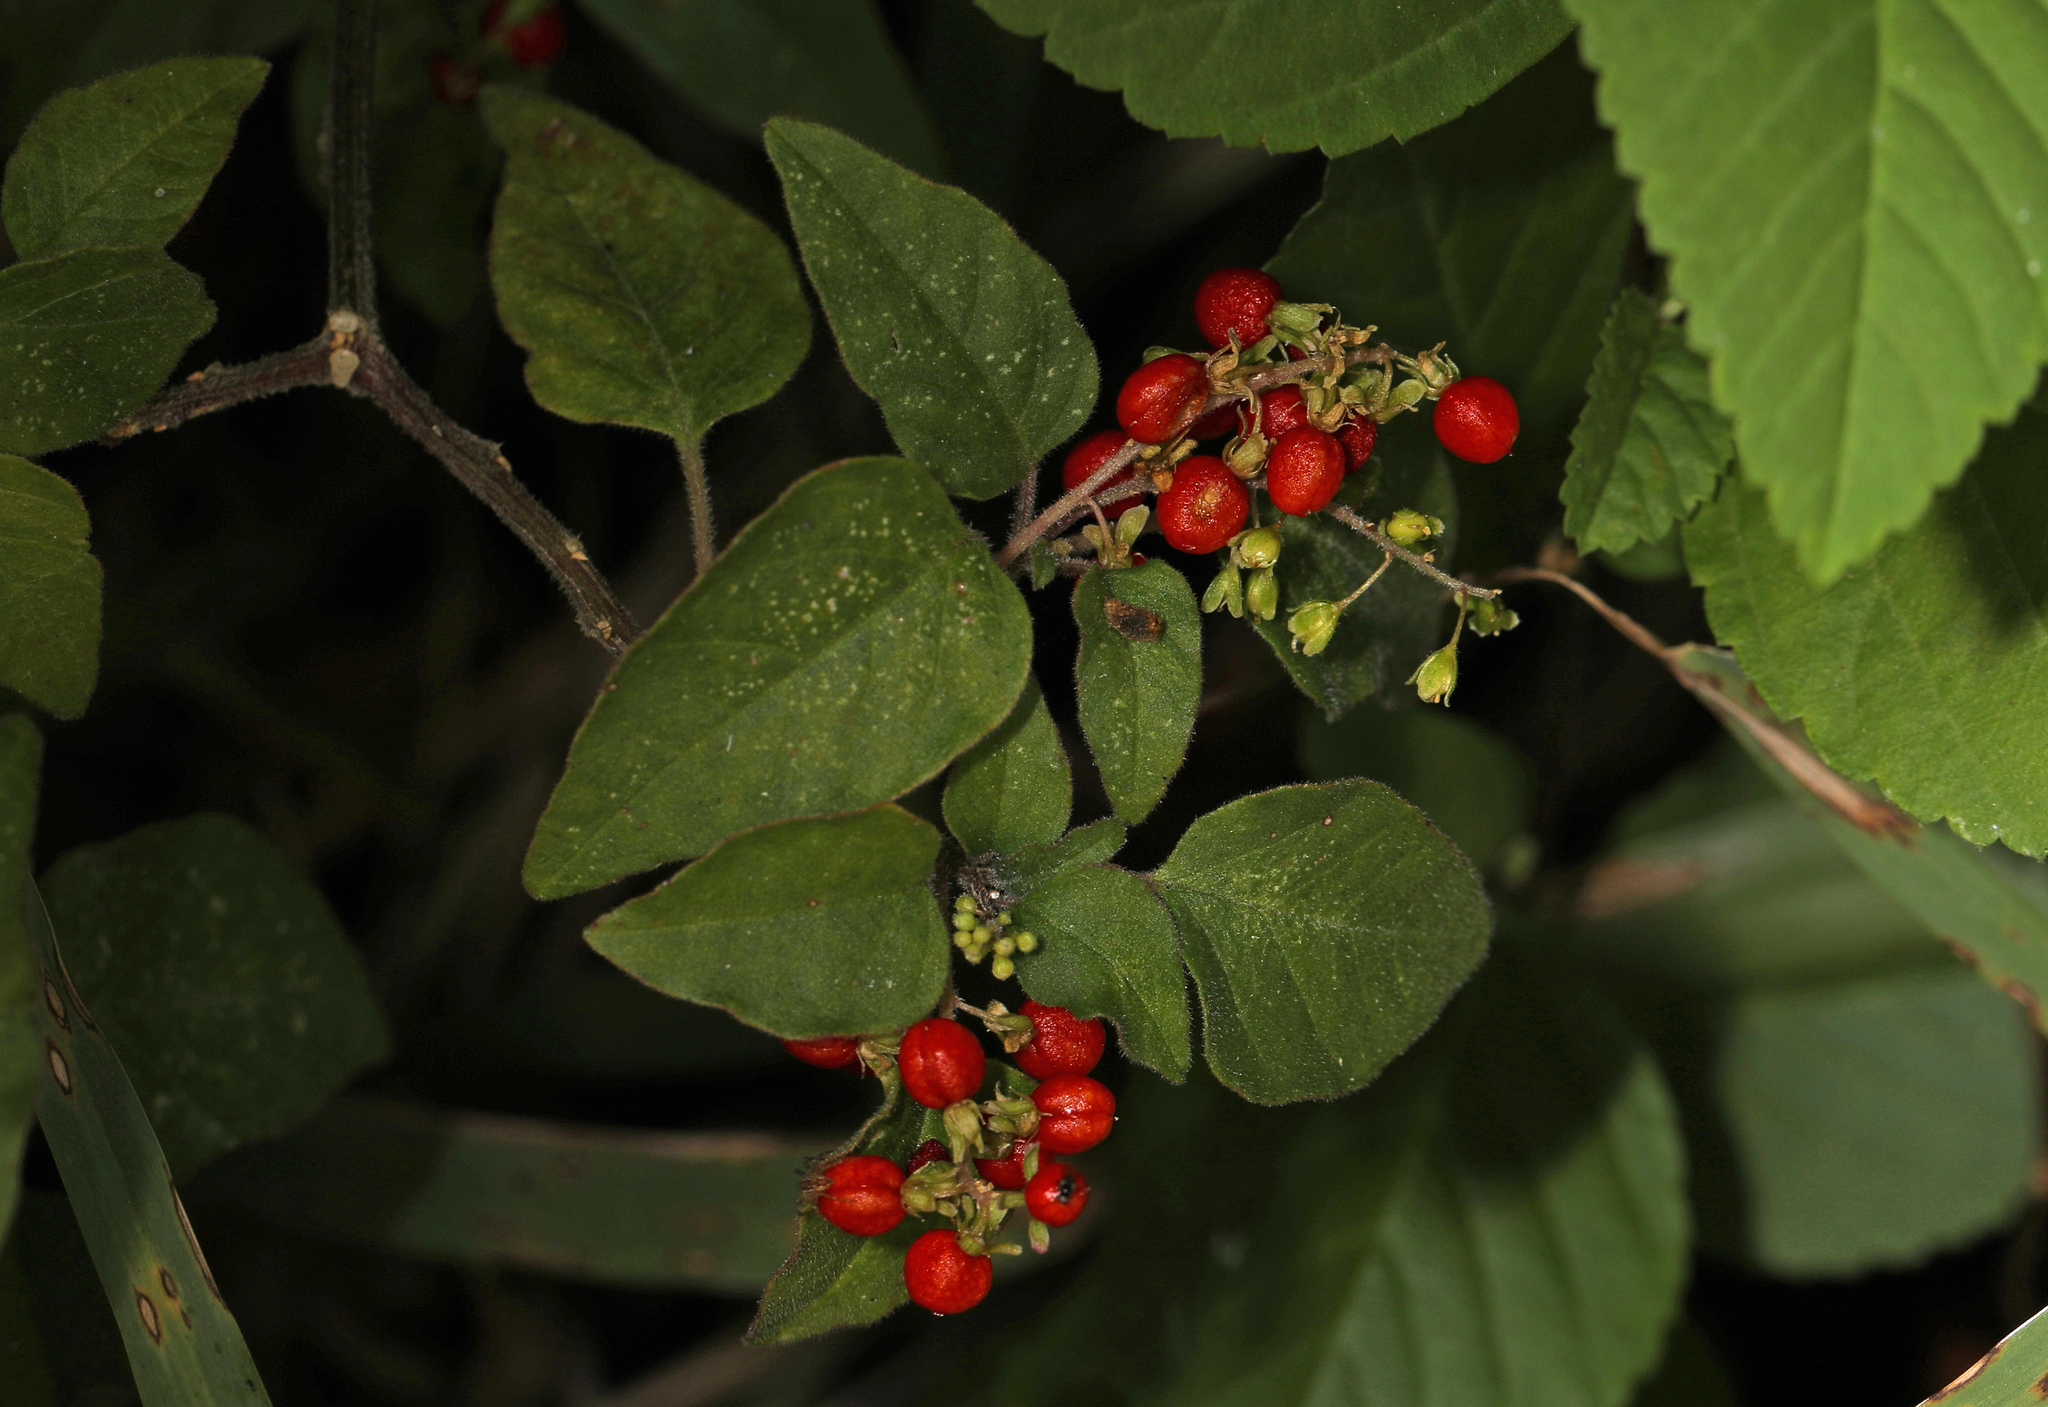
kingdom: Plantae
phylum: Tracheophyta
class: Magnoliopsida
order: Caryophyllales
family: Phytolaccaceae
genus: Rivina
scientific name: Rivina humilis
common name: Rougeplant
